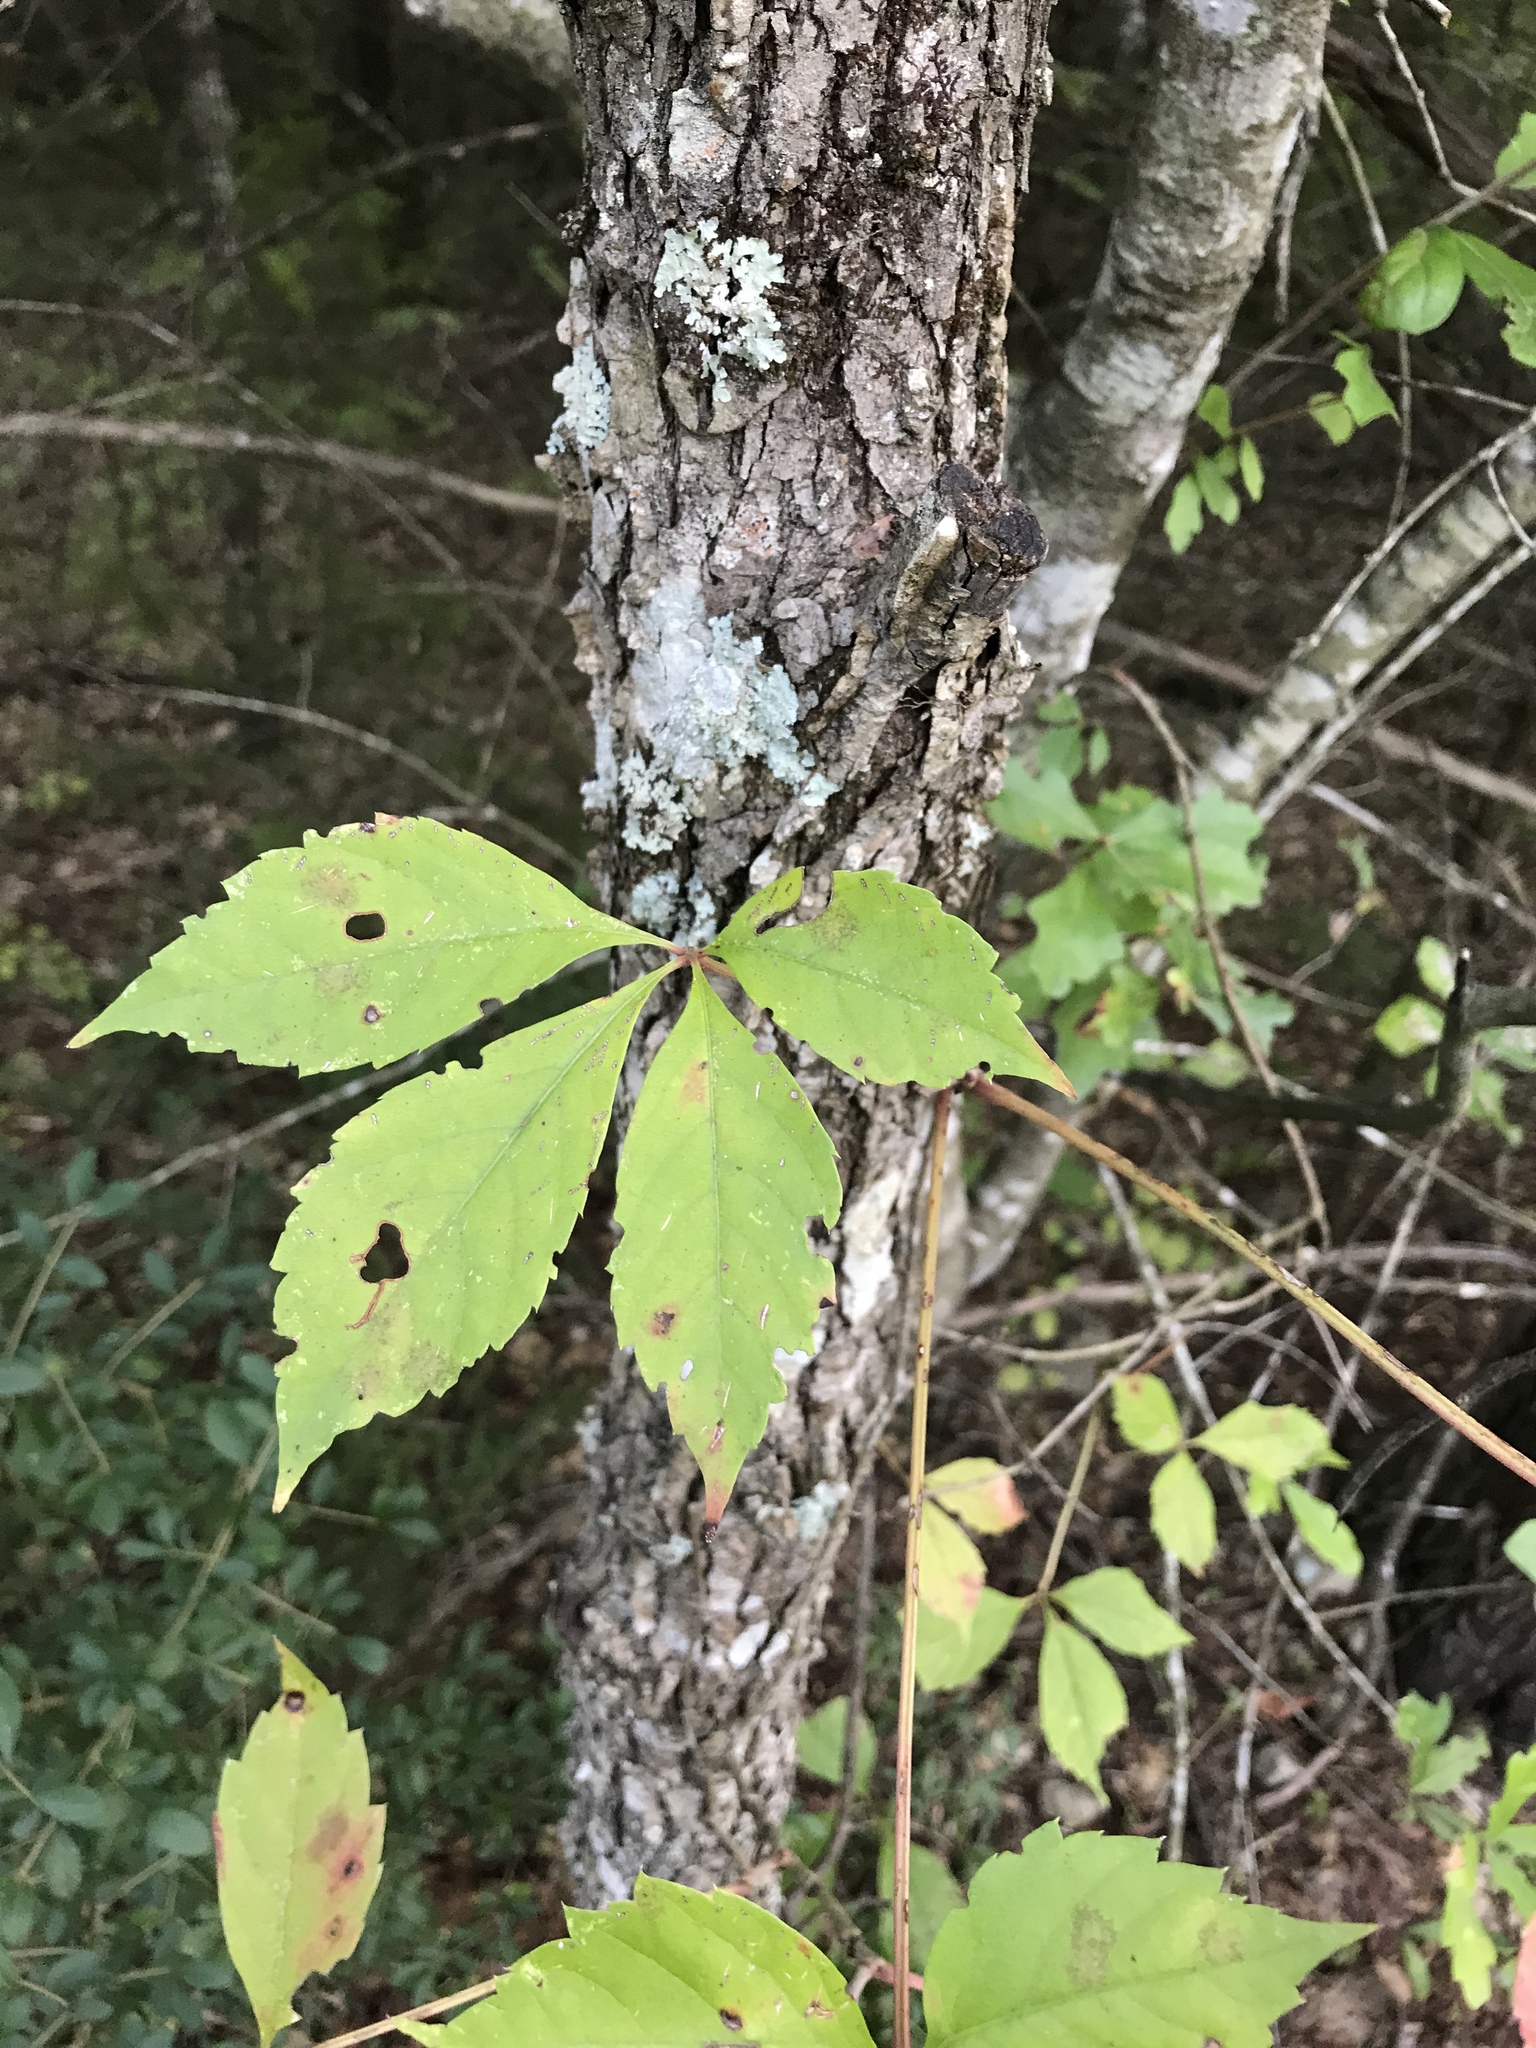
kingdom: Plantae
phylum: Tracheophyta
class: Magnoliopsida
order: Vitales
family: Vitaceae
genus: Parthenocissus
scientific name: Parthenocissus quinquefolia
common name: Virginia-creeper
